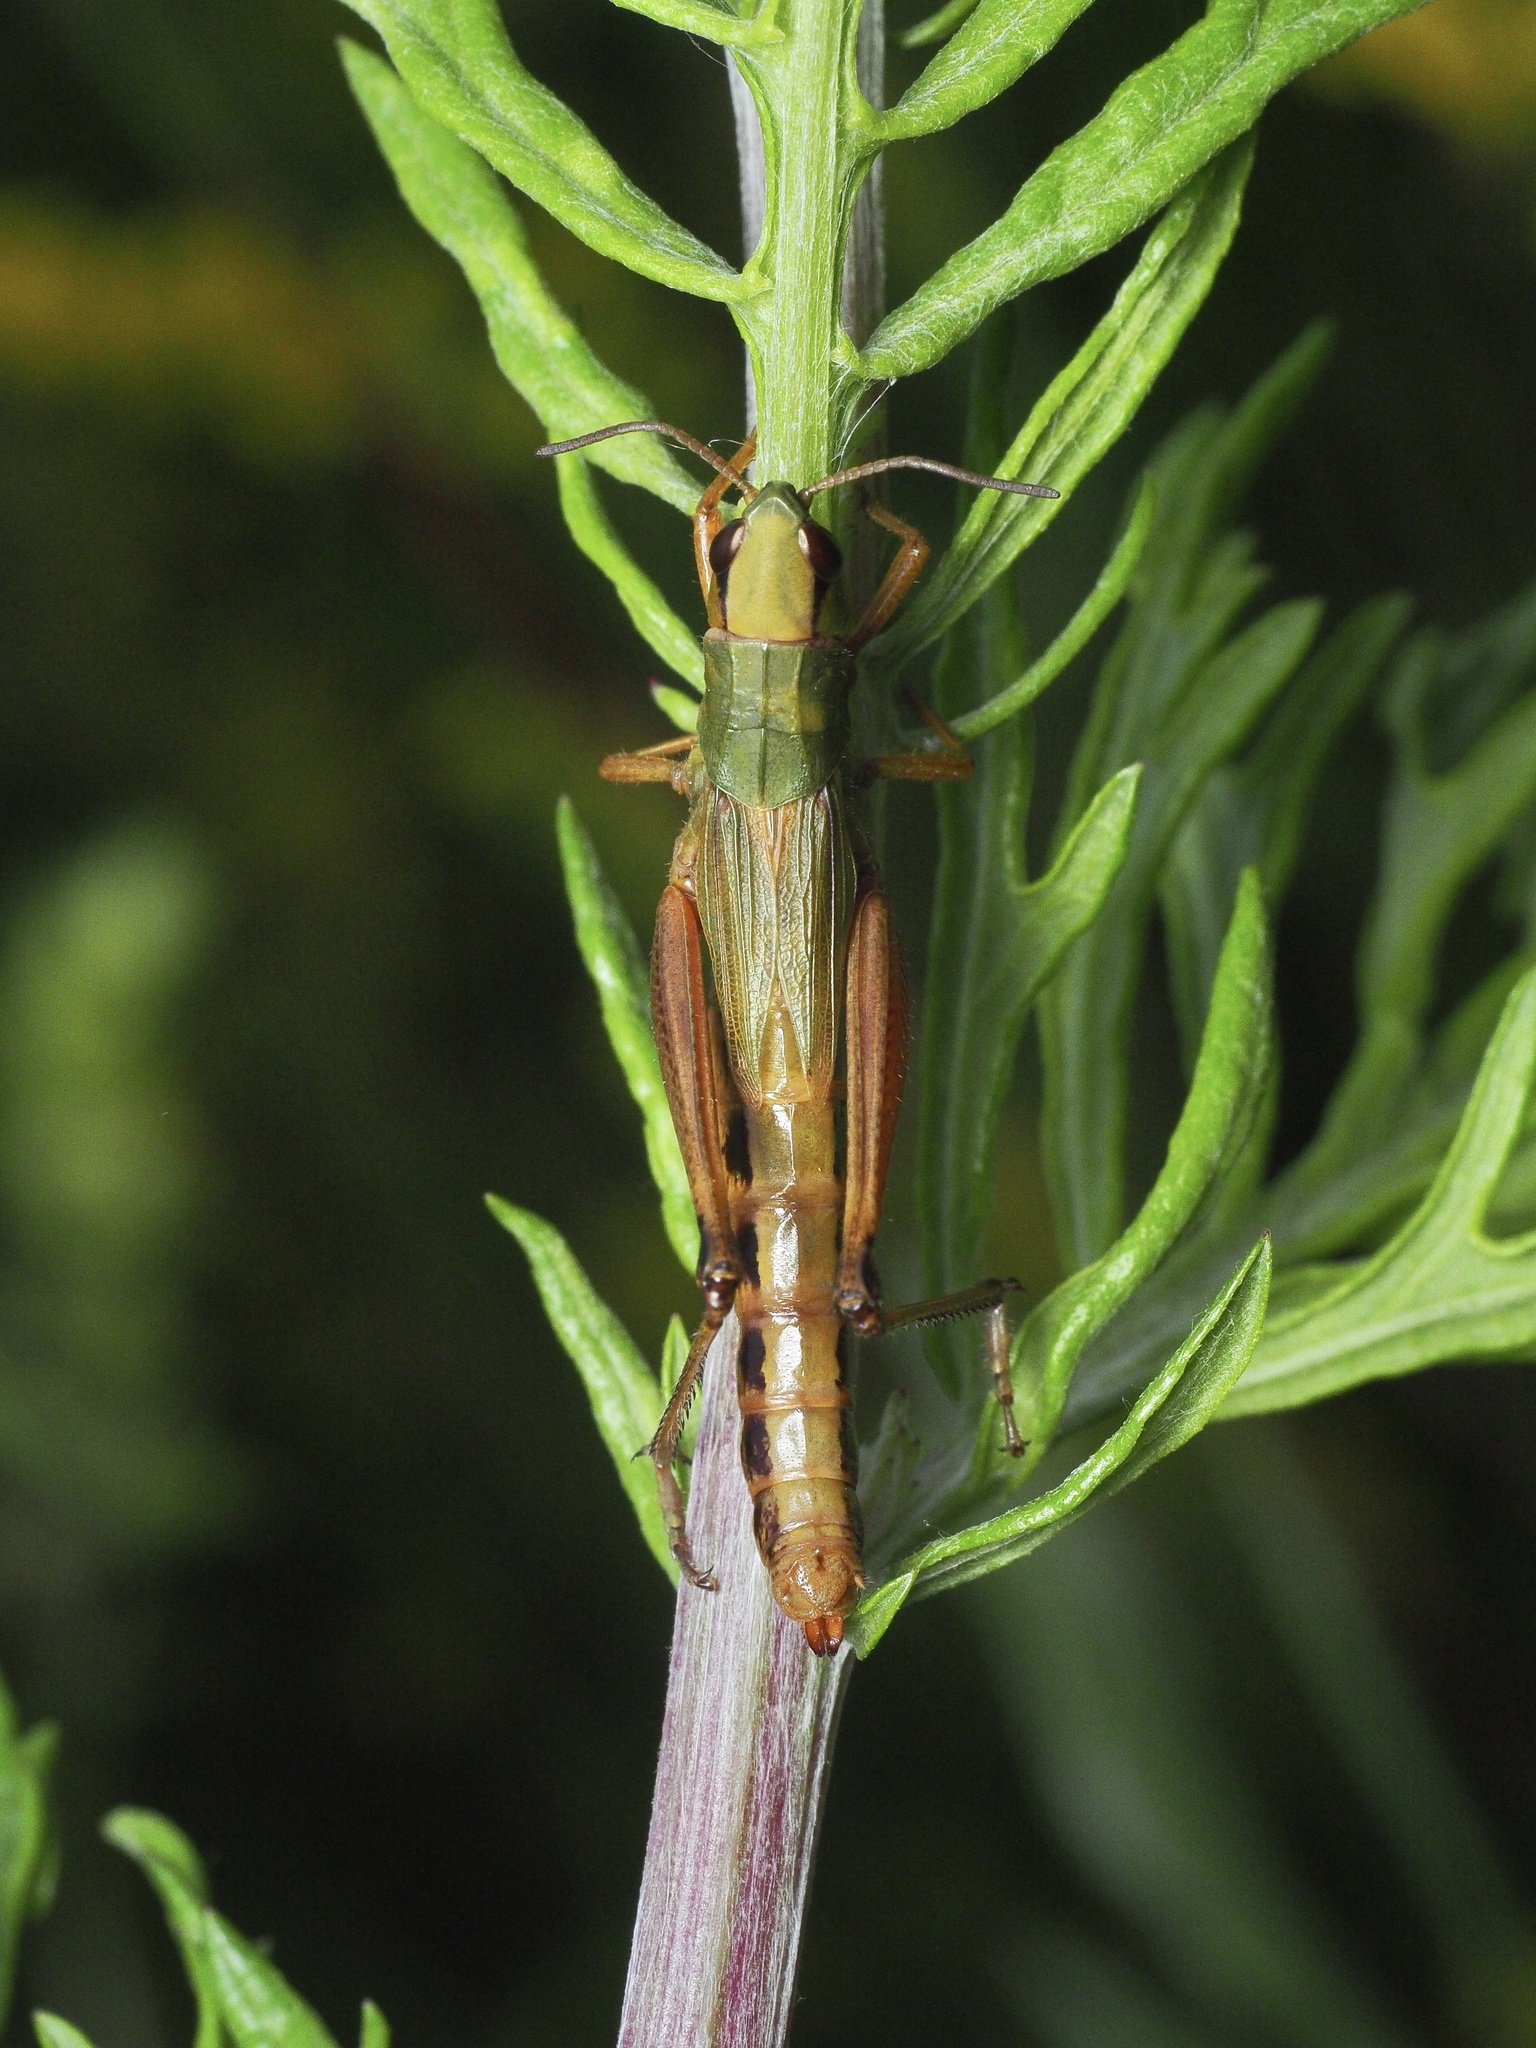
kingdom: Animalia
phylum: Arthropoda
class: Insecta
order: Orthoptera
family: Acrididae
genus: Pseudochorthippus
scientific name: Pseudochorthippus parallelus
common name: Meadow grasshopper
